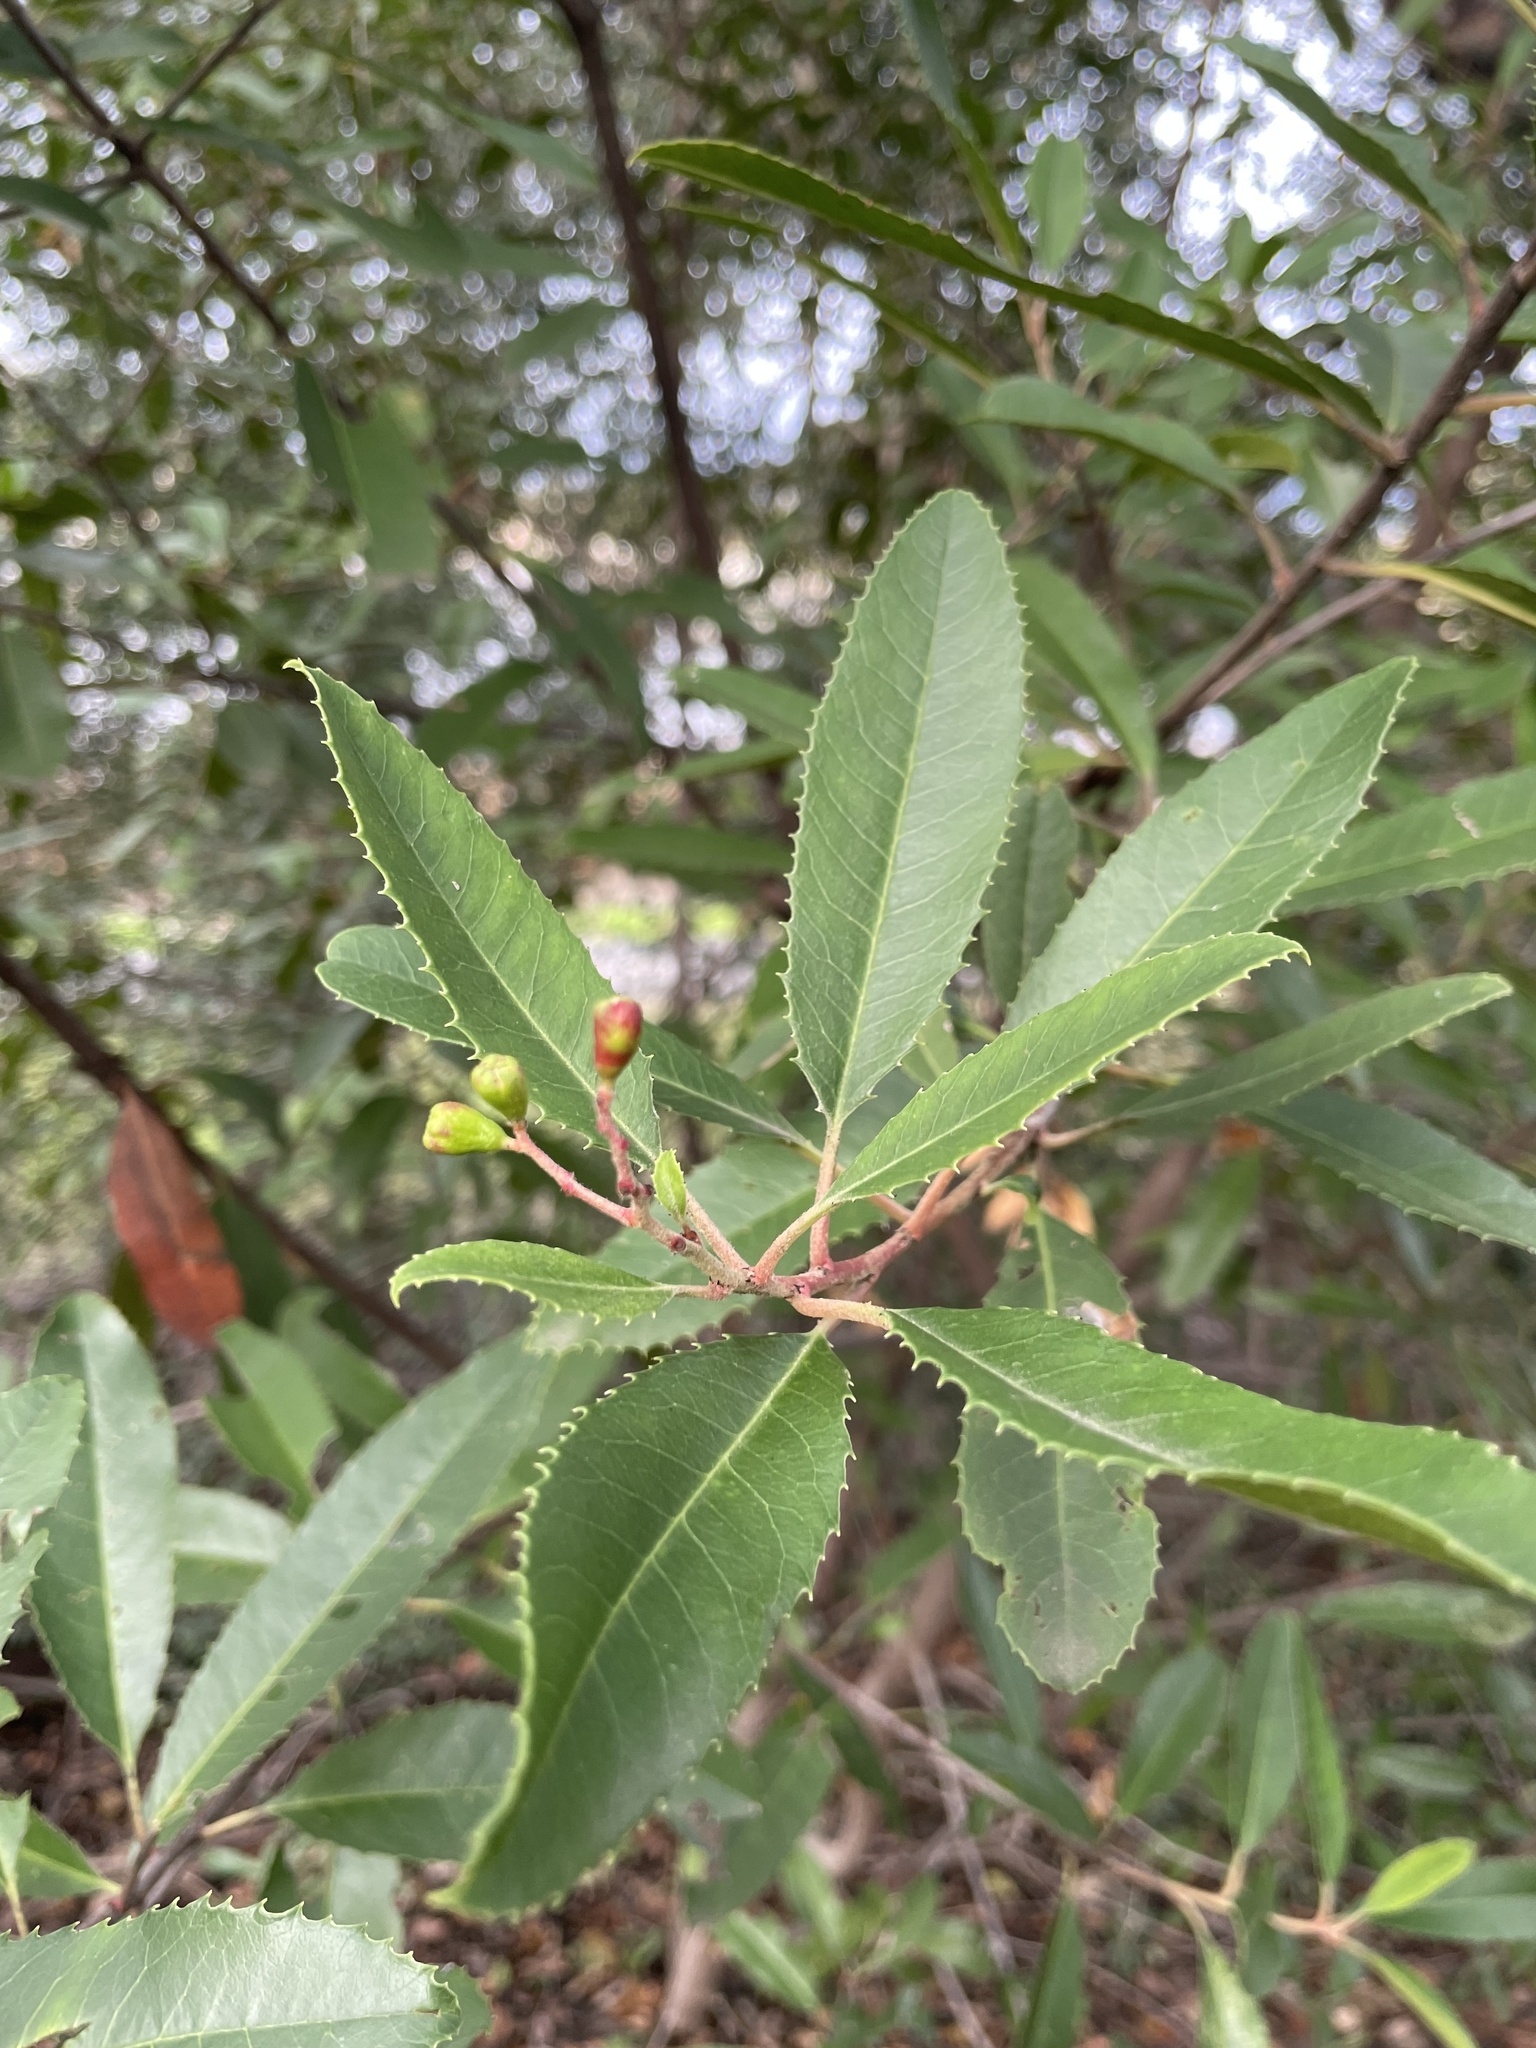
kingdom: Plantae
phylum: Tracheophyta
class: Magnoliopsida
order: Rosales
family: Rosaceae
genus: Heteromeles
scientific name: Heteromeles arbutifolia
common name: California-holly
